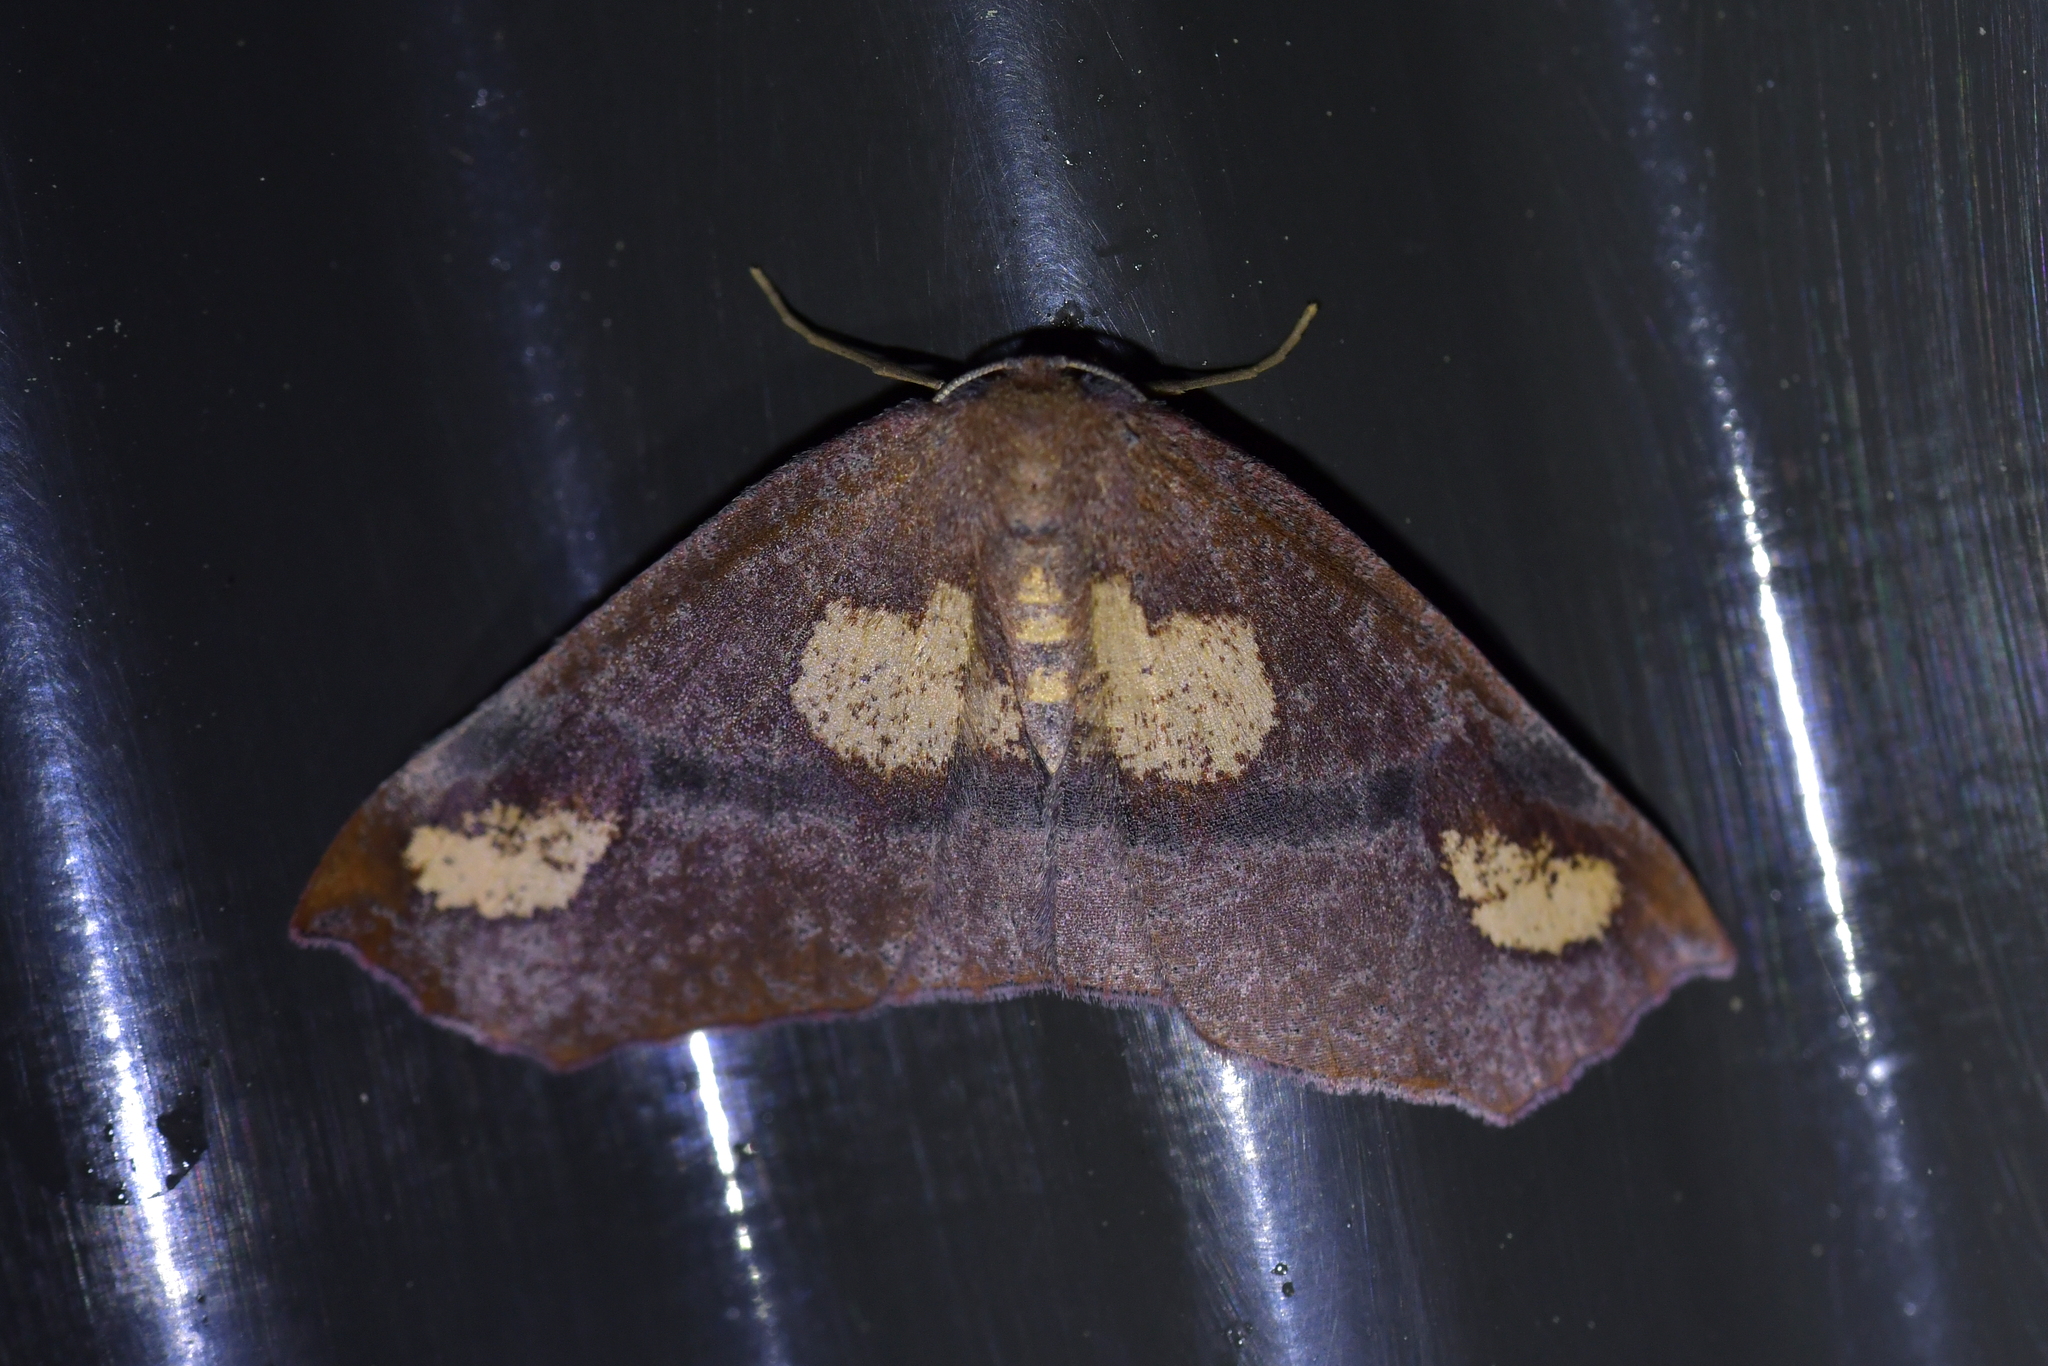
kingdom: Animalia
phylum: Arthropoda
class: Insecta
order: Lepidoptera
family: Geometridae
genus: Xyridacma
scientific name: Xyridacma ustaria
